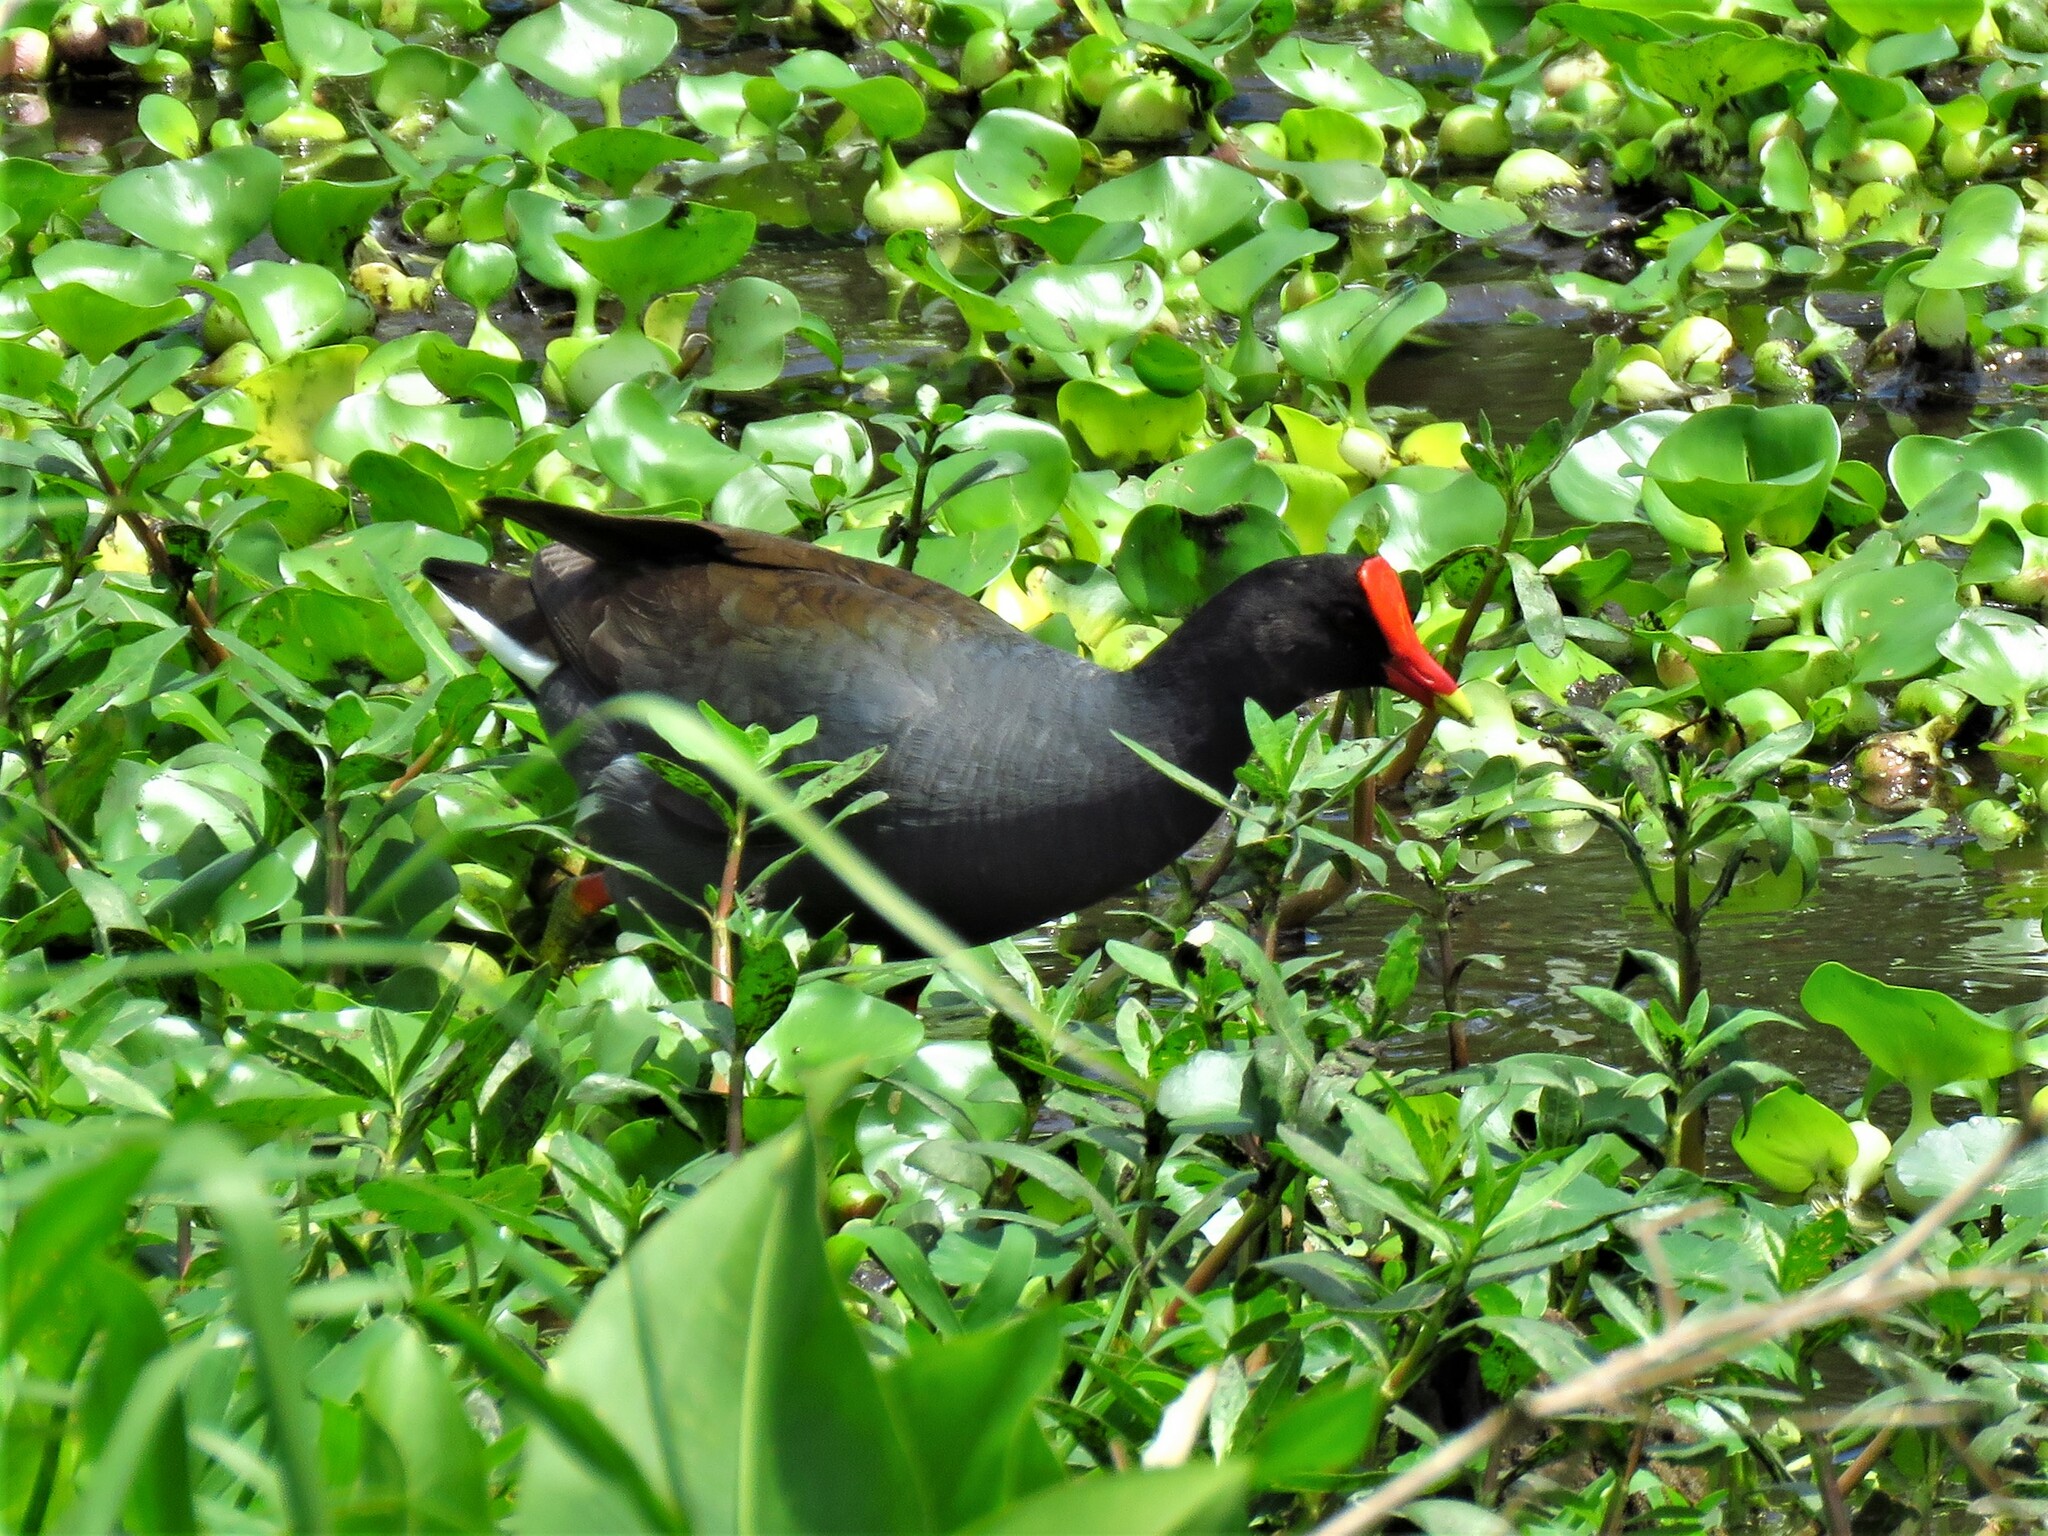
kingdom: Animalia
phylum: Chordata
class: Aves
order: Gruiformes
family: Rallidae
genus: Gallinula
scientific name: Gallinula chloropus
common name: Common moorhen
